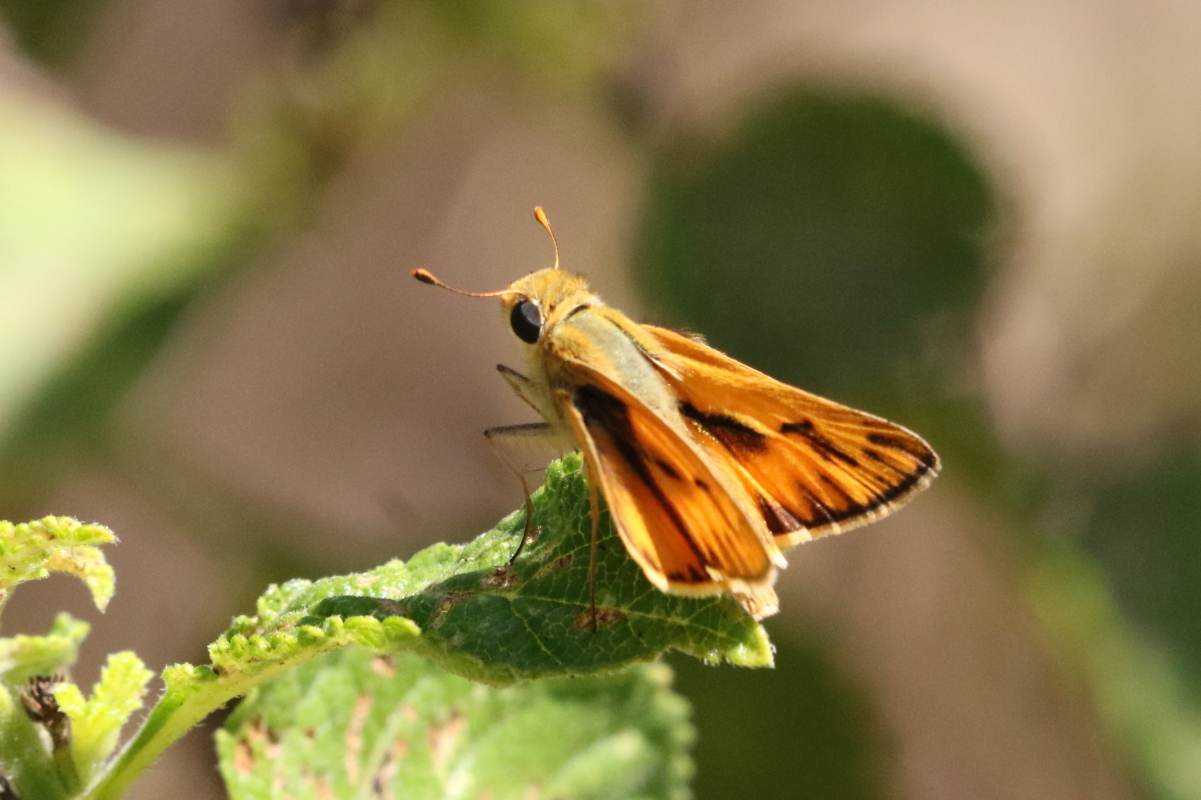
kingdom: Animalia
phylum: Arthropoda
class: Insecta
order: Lepidoptera
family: Hesperiidae
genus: Hylephila
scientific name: Hylephila phyleus
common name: Fiery skipper
